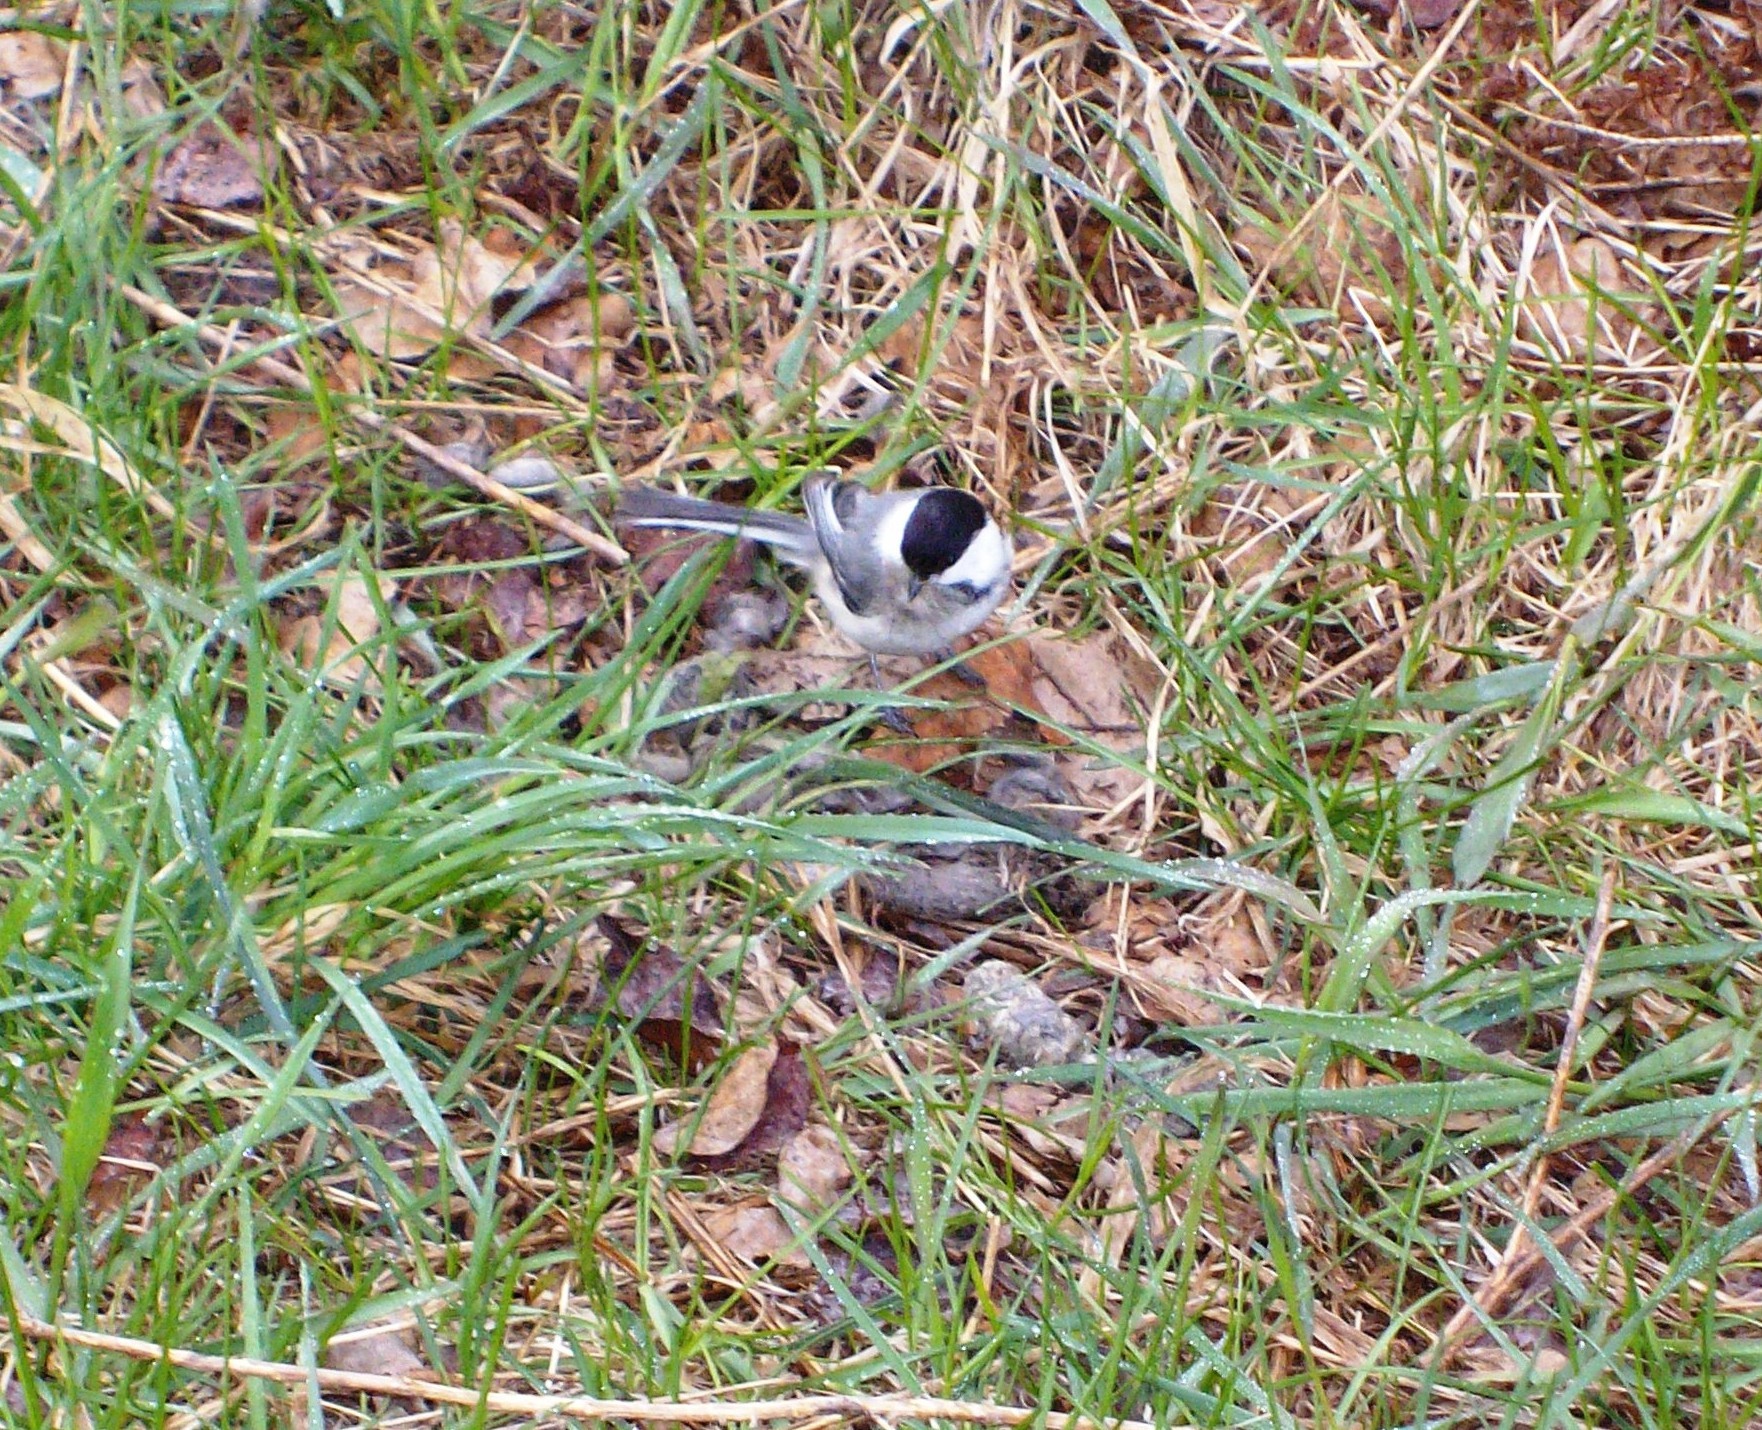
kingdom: Animalia
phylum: Chordata
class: Aves
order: Passeriformes
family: Paridae
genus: Poecile
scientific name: Poecile atricapillus
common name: Black-capped chickadee
